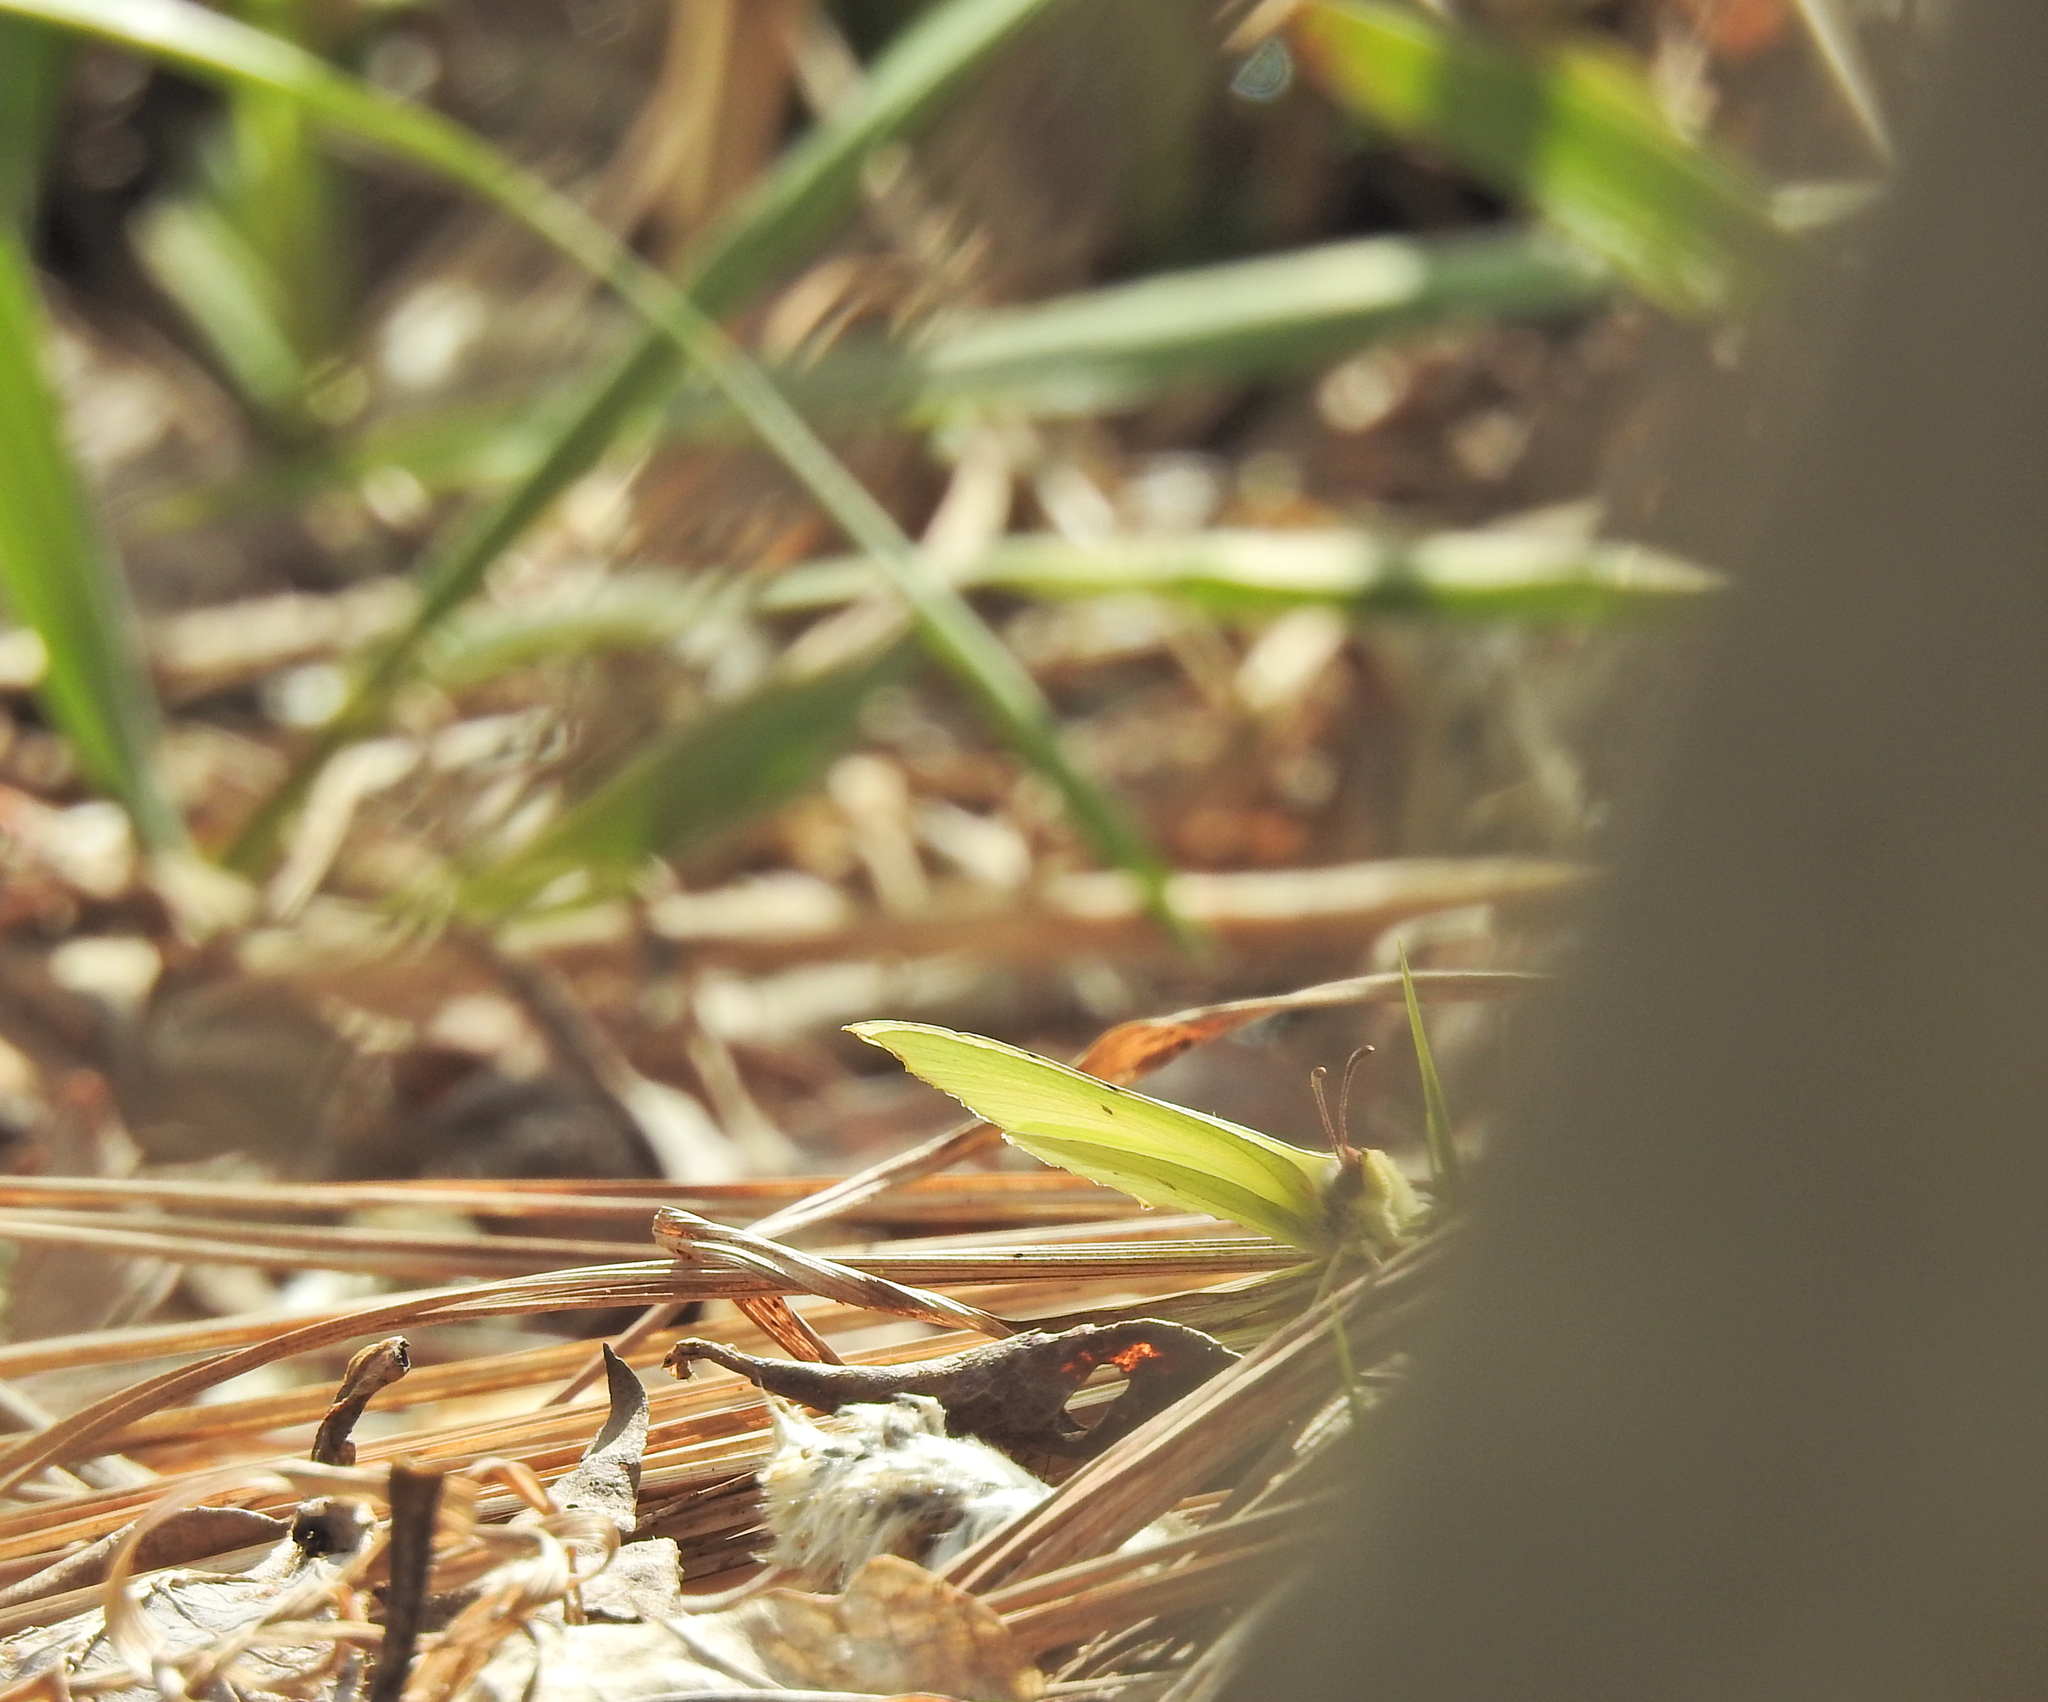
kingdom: Animalia
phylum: Arthropoda
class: Insecta
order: Lepidoptera
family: Pieridae
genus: Gonepteryx
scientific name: Gonepteryx rhamni
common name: Brimstone
